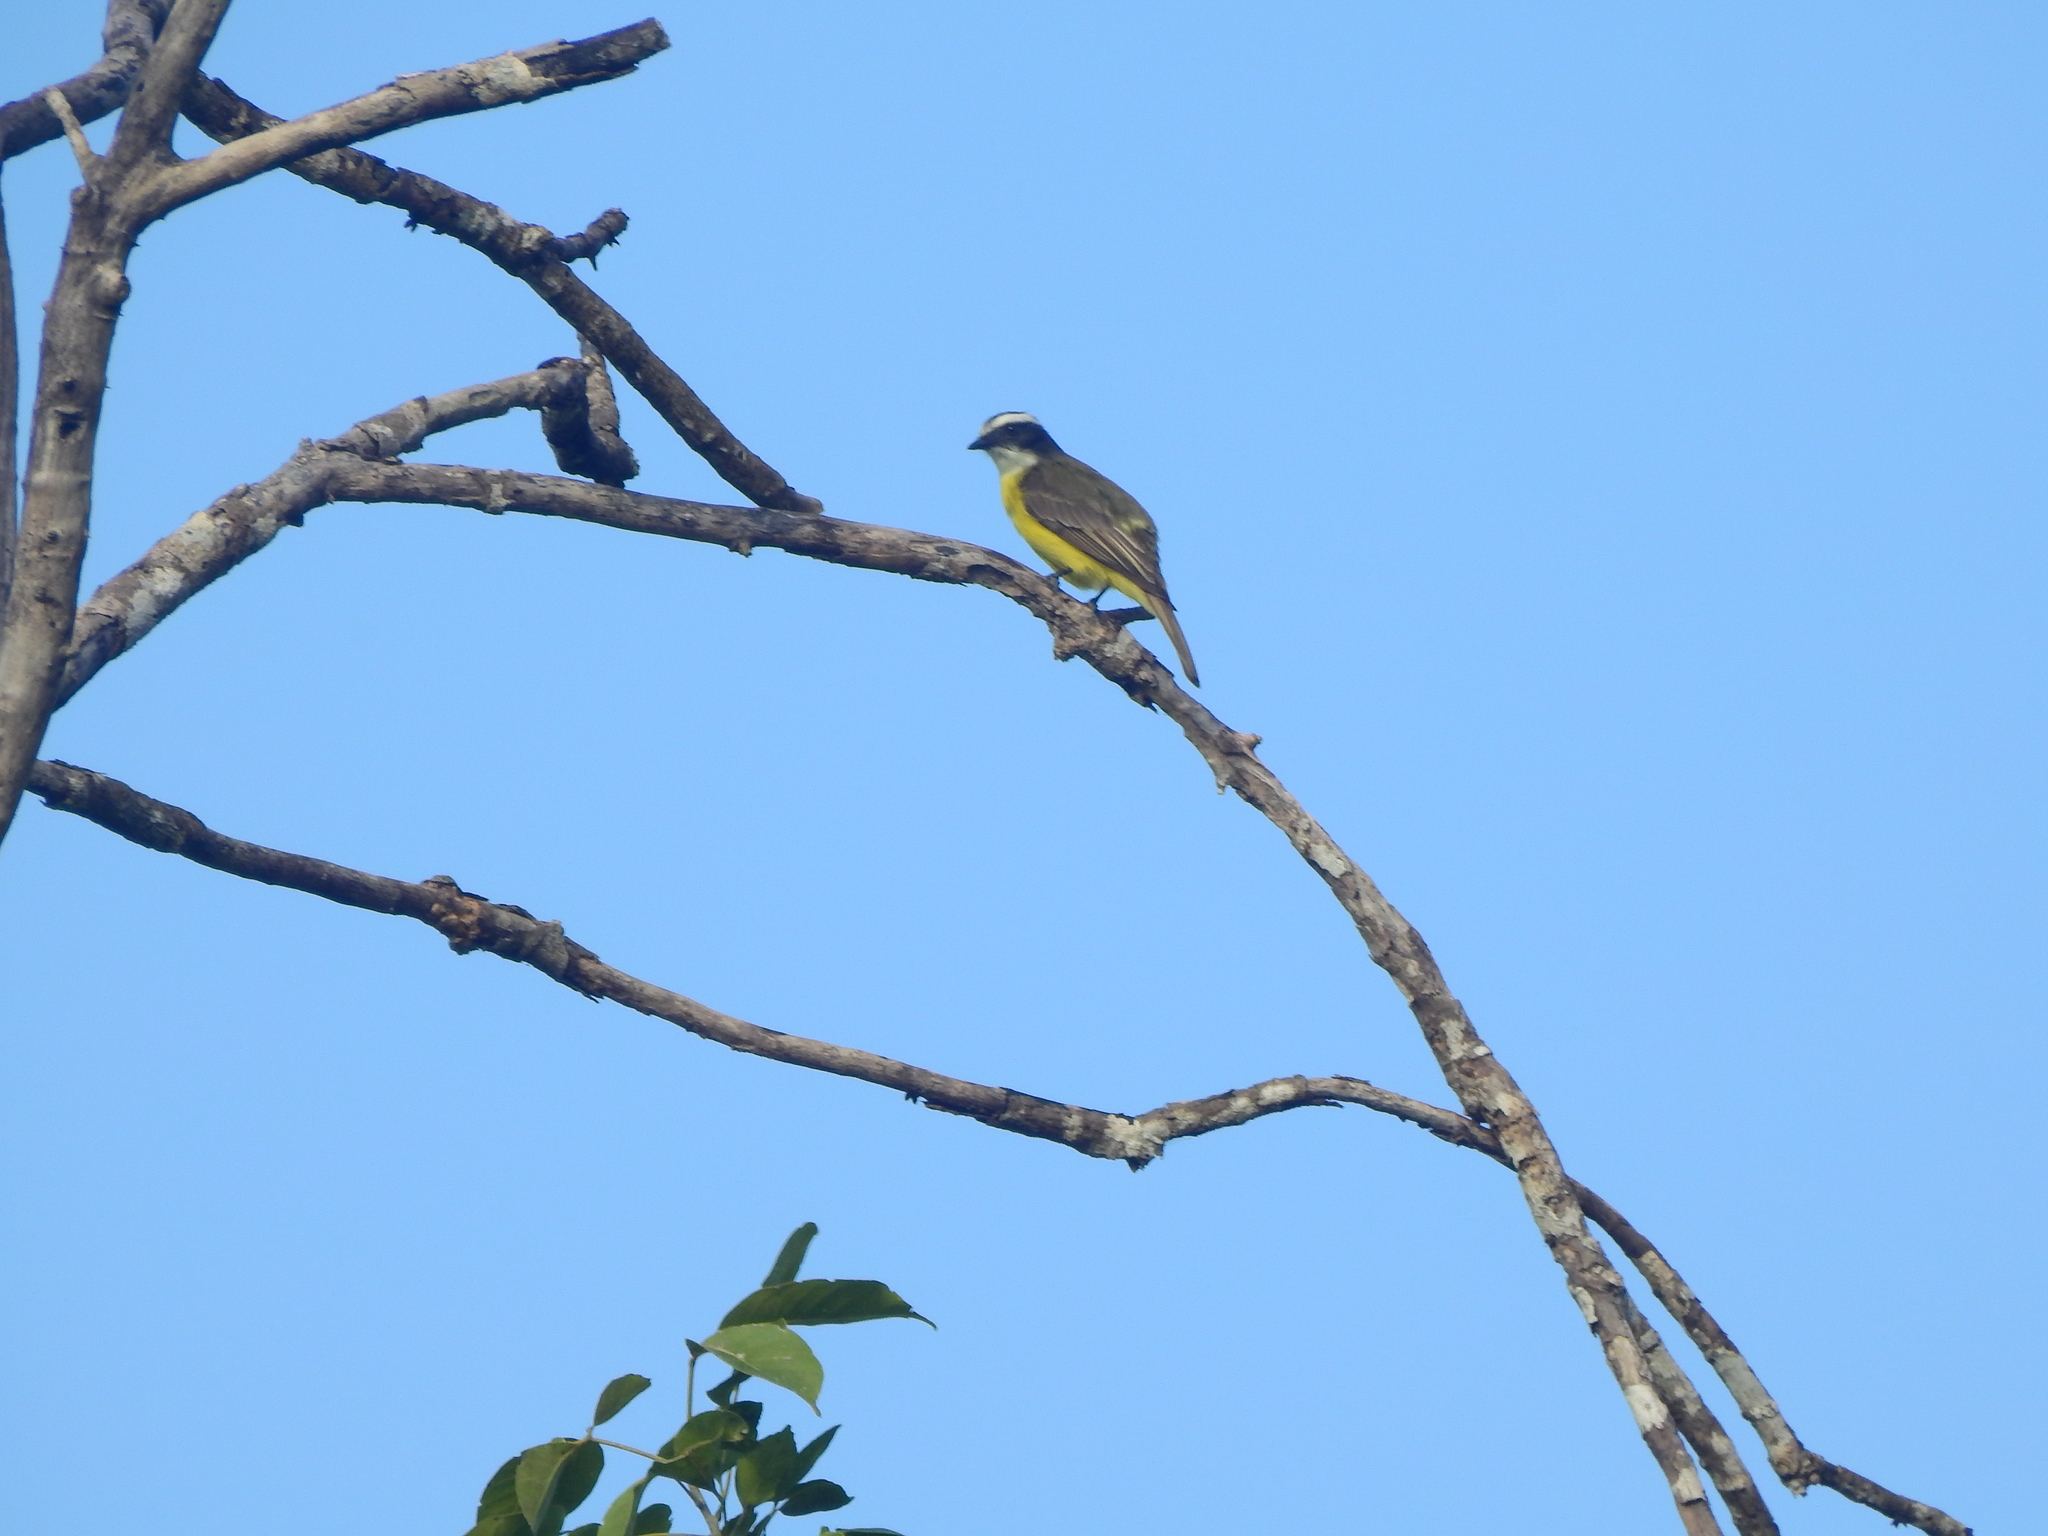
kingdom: Animalia
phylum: Chordata
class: Aves
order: Passeriformes
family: Tyrannidae
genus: Myiozetetes
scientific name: Myiozetetes similis
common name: Social flycatcher
